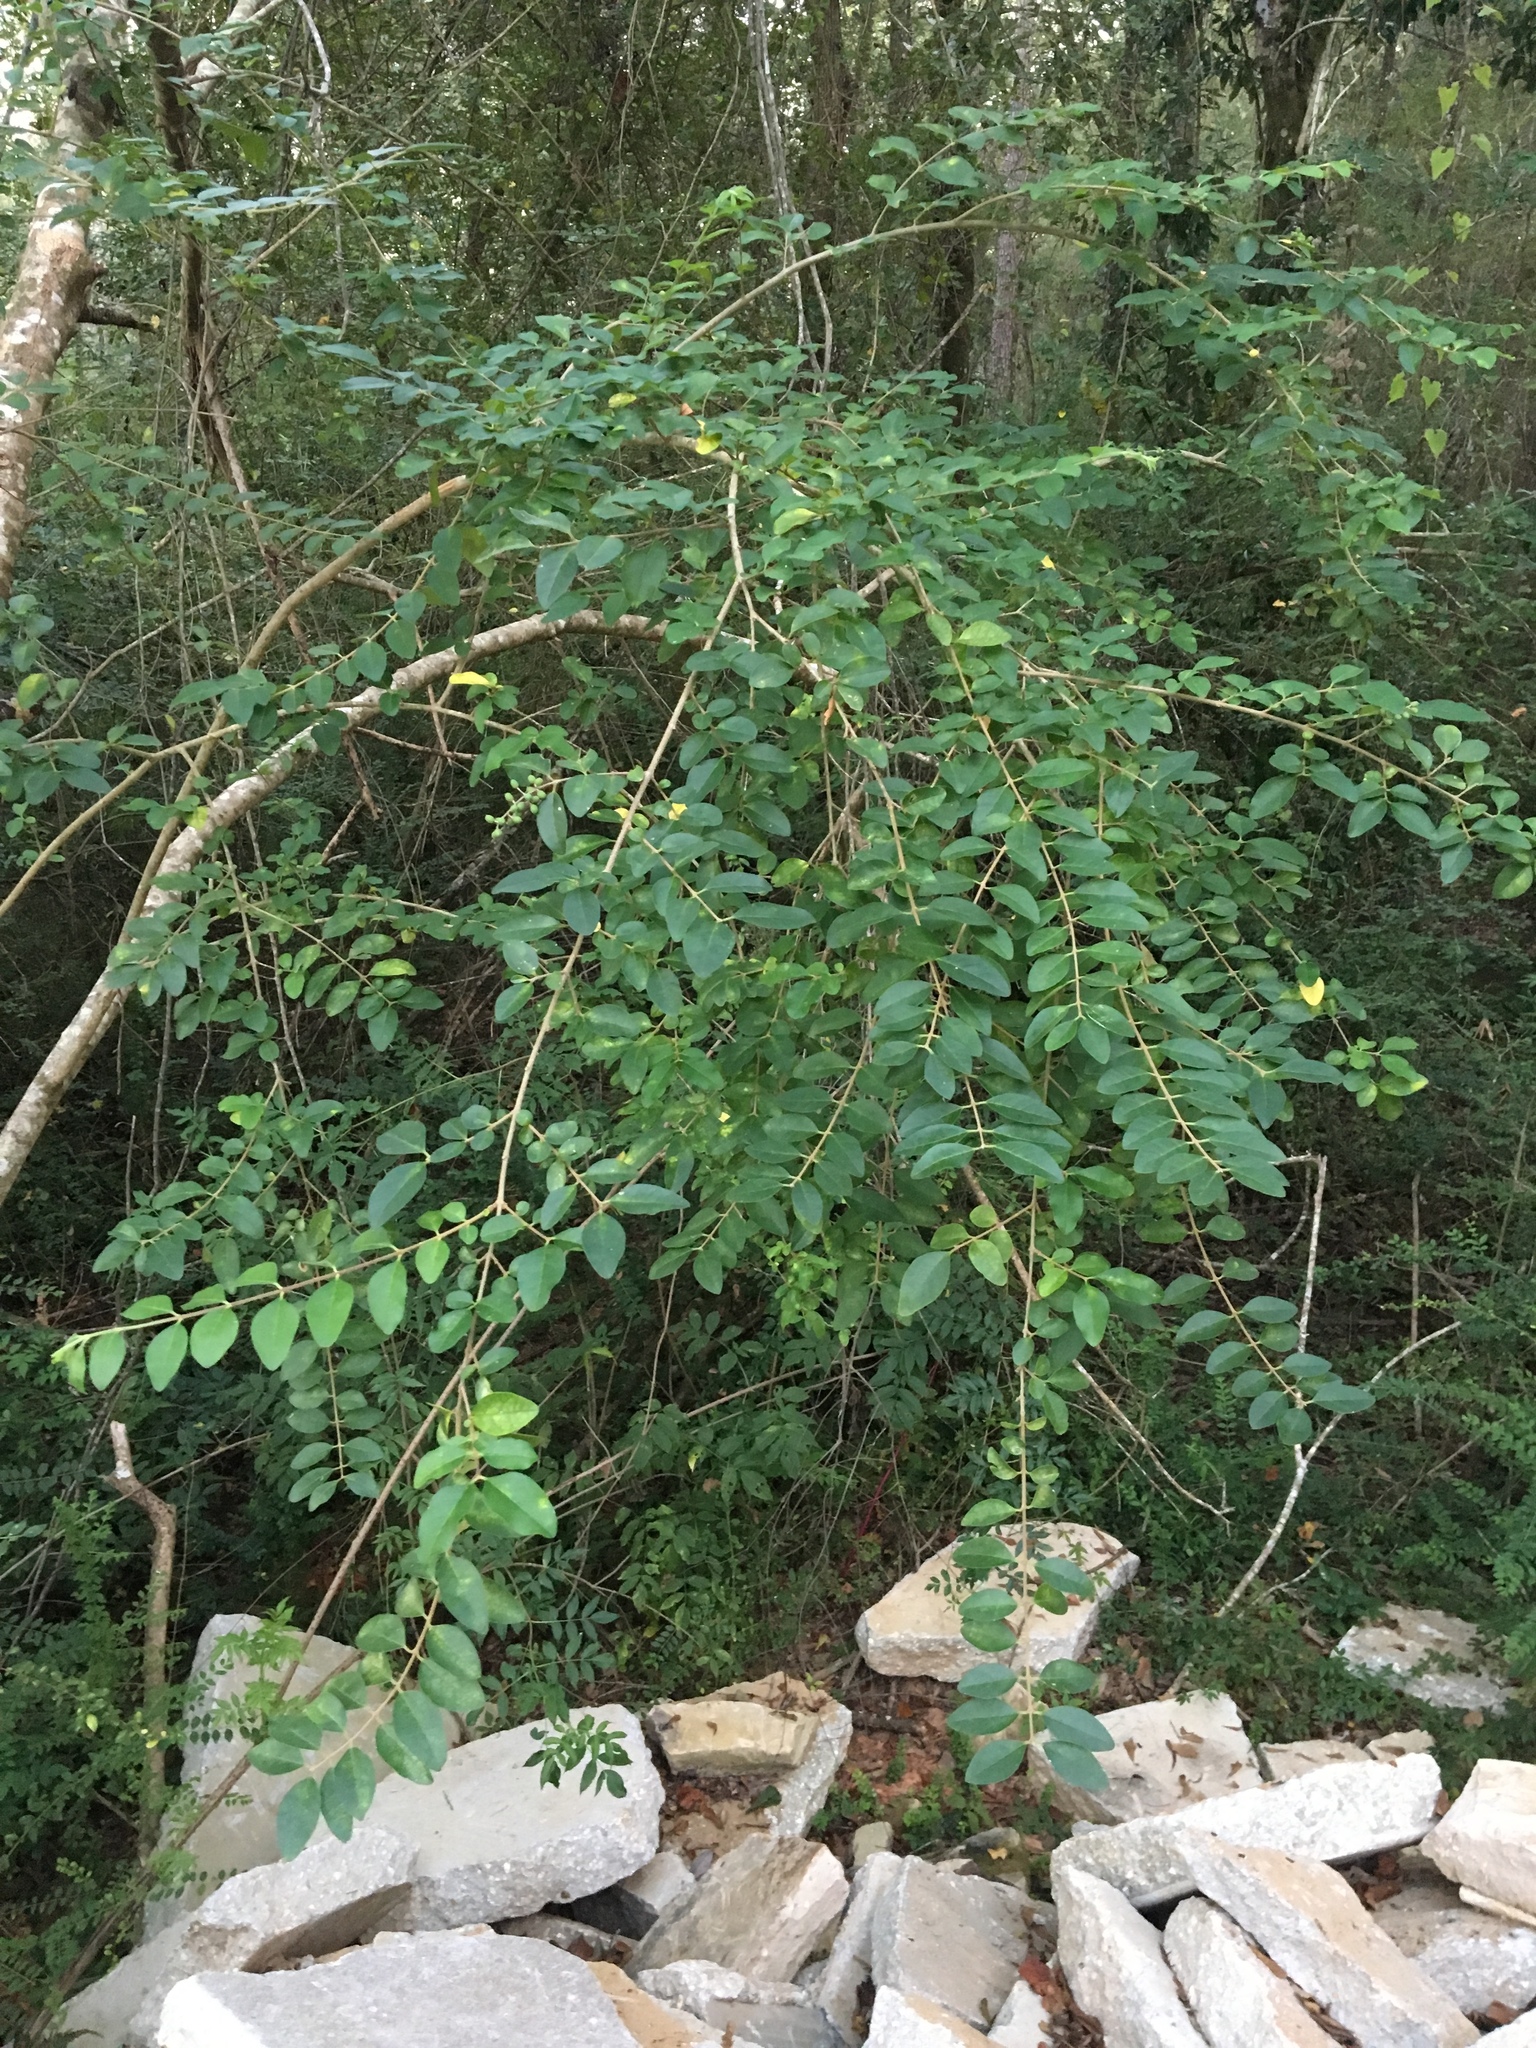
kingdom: Plantae
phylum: Tracheophyta
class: Magnoliopsida
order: Lamiales
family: Oleaceae
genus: Ligustrum
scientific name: Ligustrum sinense
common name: Chinese privet
